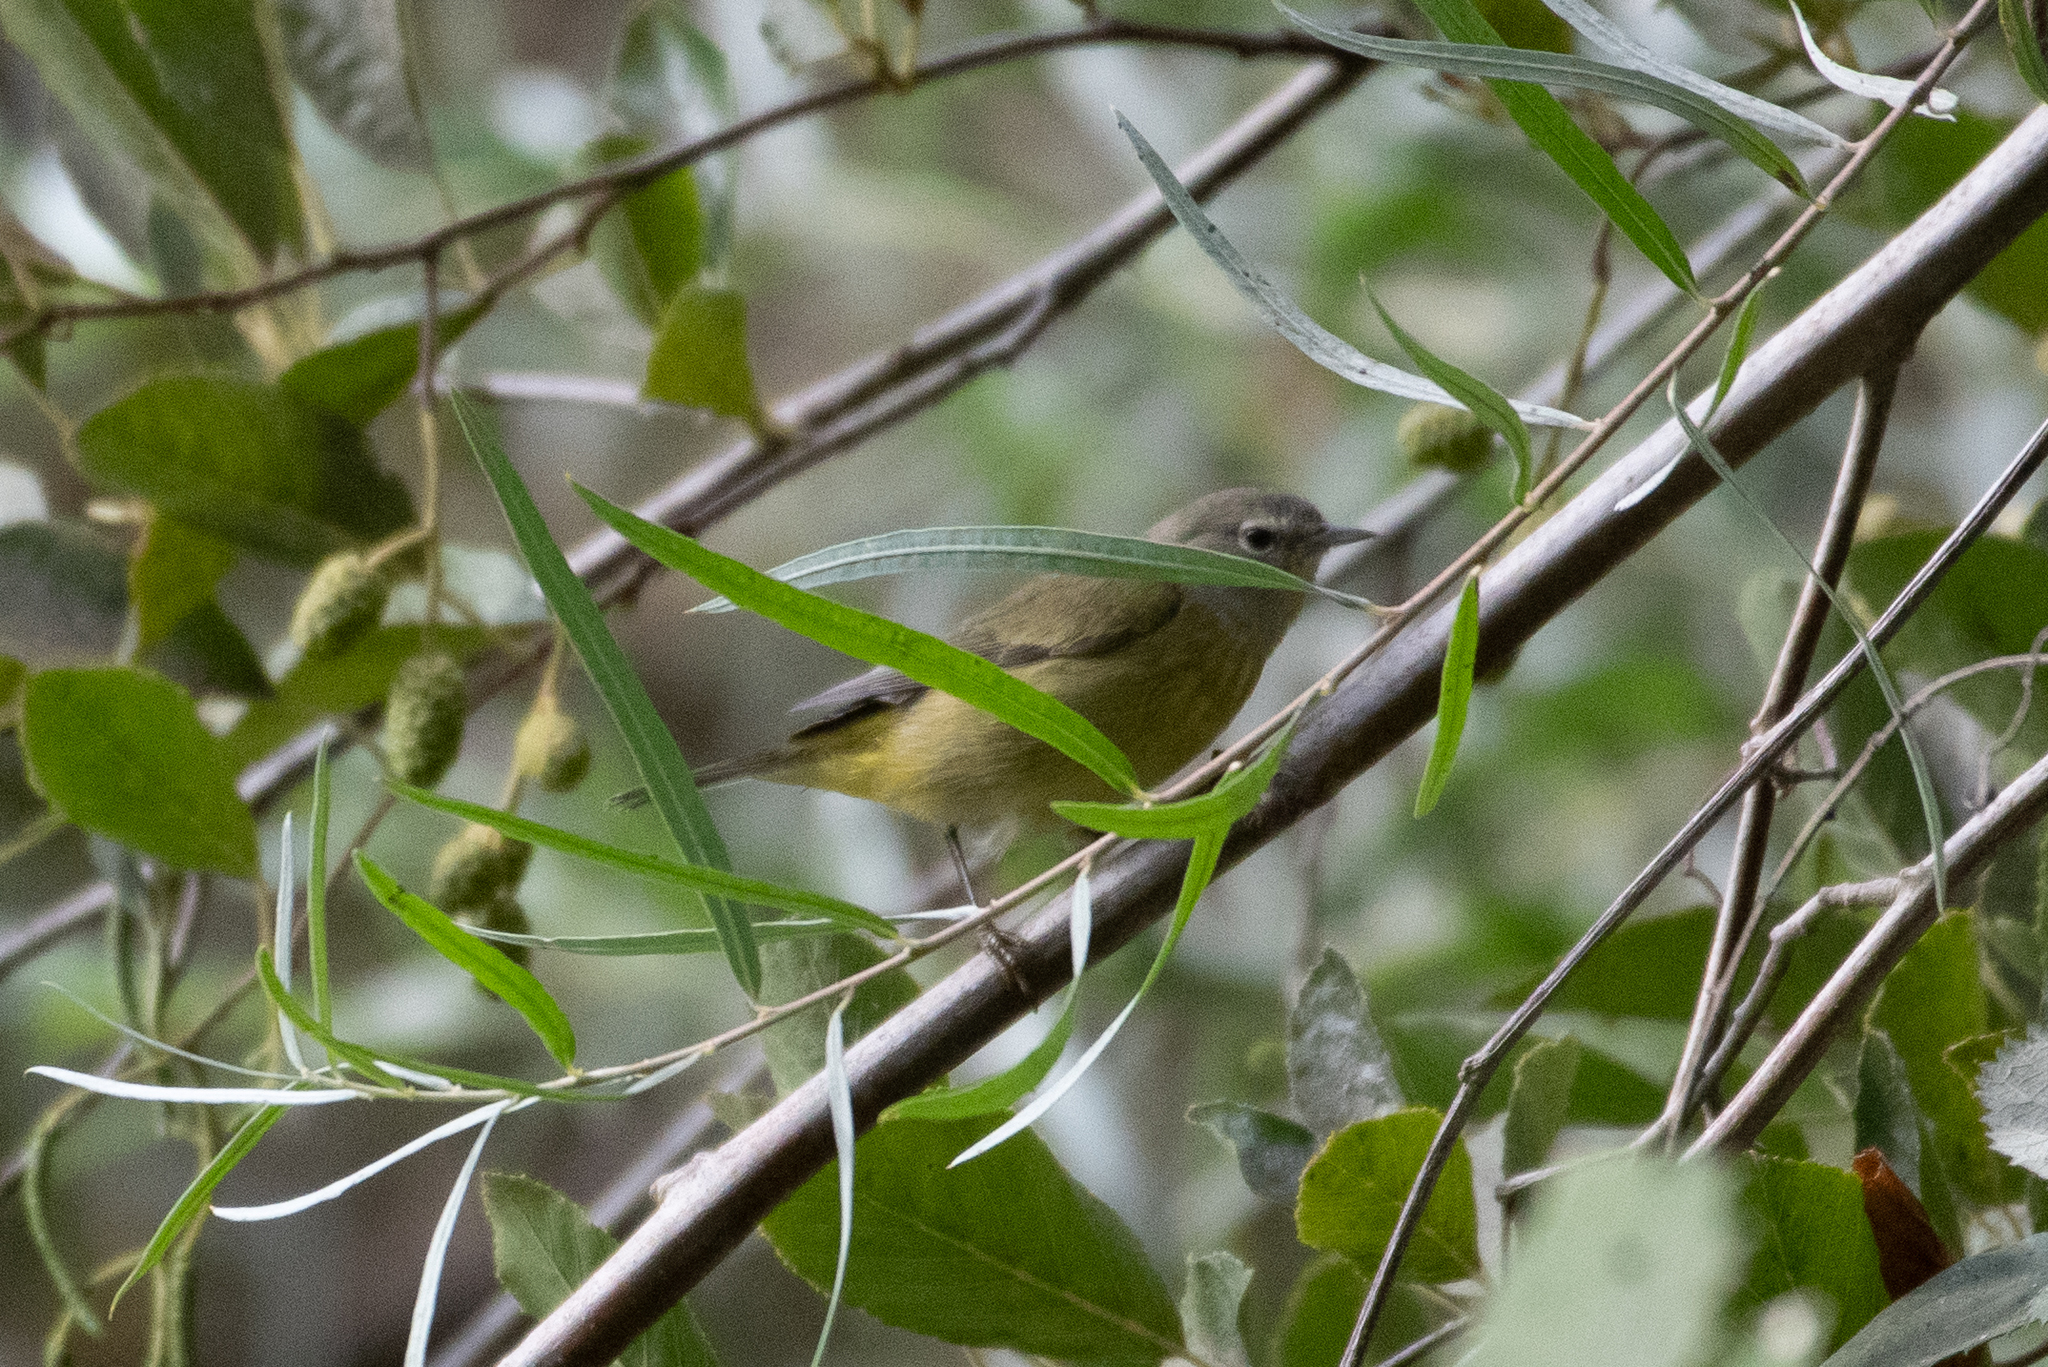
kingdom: Animalia
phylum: Chordata
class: Aves
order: Passeriformes
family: Parulidae
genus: Leiothlypis
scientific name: Leiothlypis celata
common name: Orange-crowned warbler
